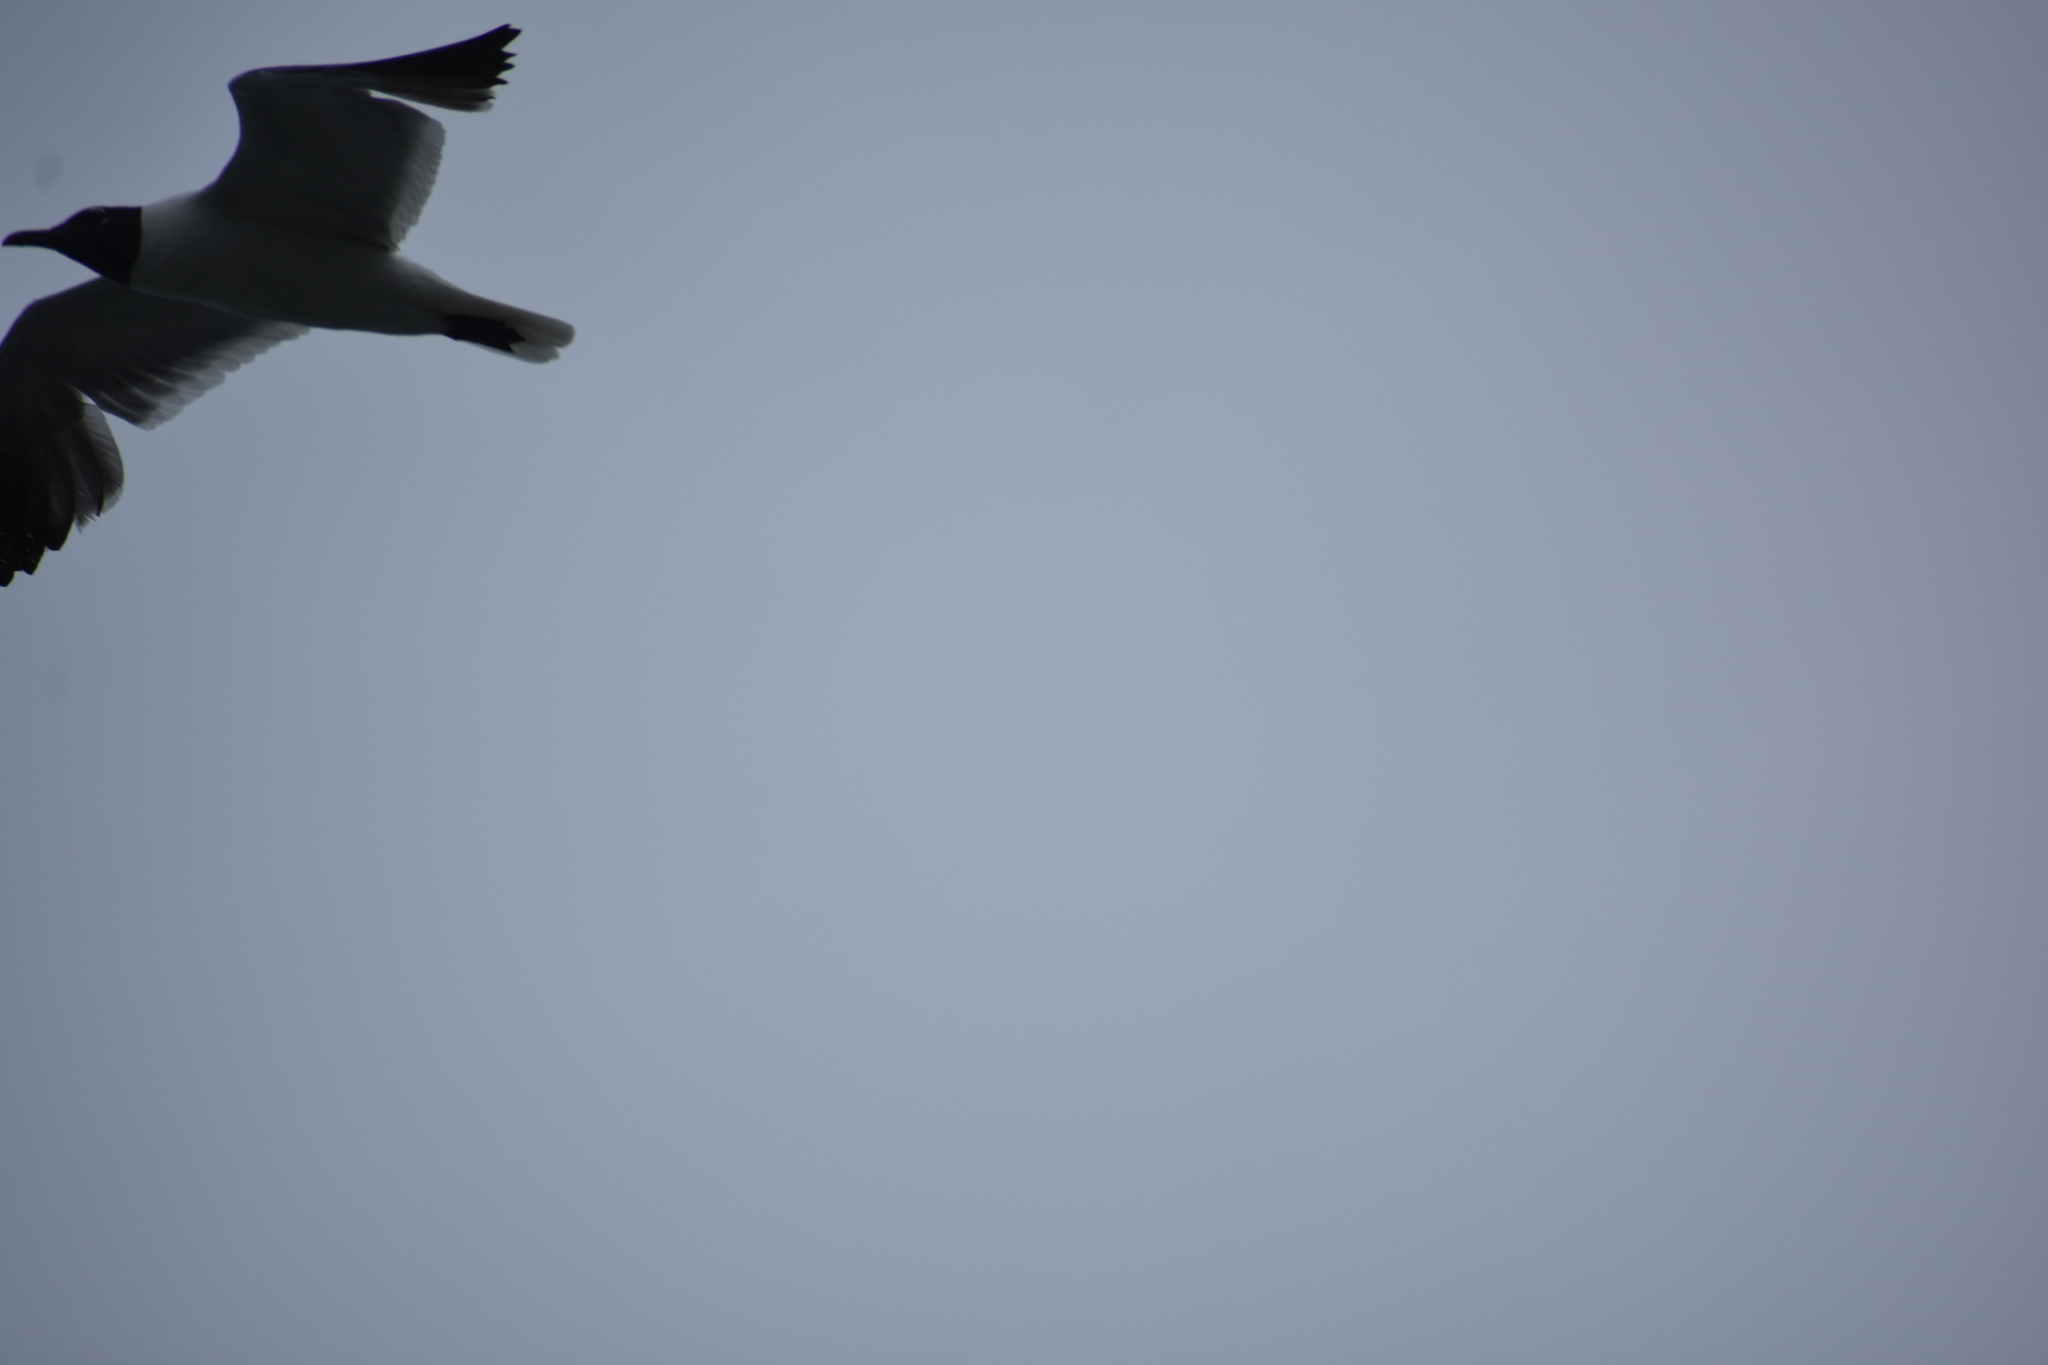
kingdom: Animalia
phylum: Chordata
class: Aves
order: Charadriiformes
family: Laridae
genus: Leucophaeus
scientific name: Leucophaeus atricilla
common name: Laughing gull
